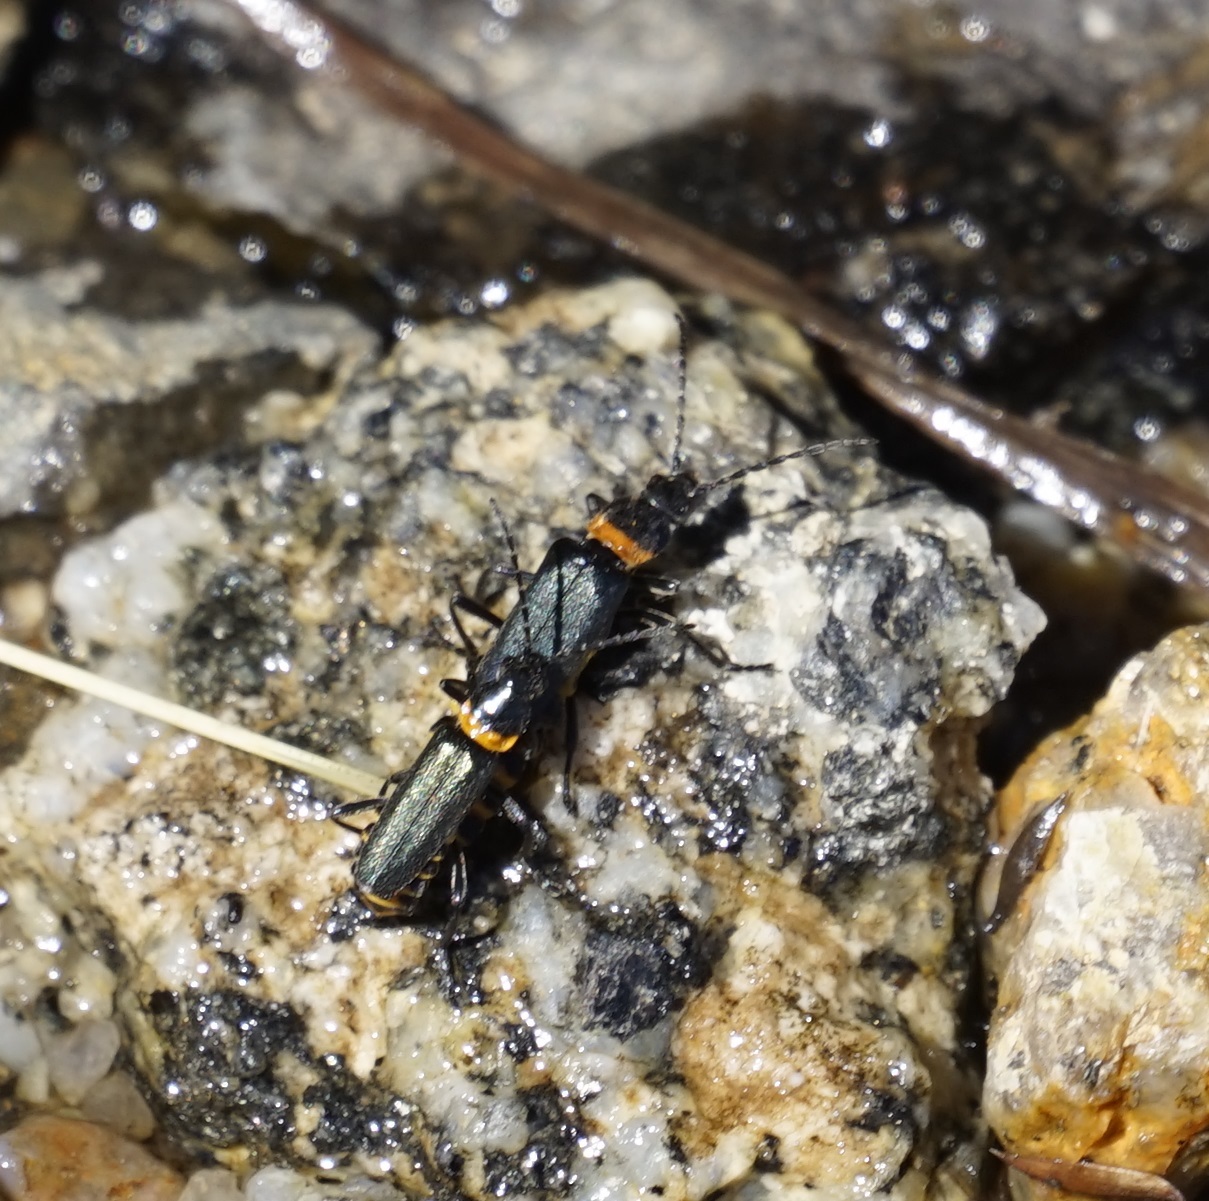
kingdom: Animalia
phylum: Arthropoda
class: Insecta
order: Coleoptera
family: Cantharidae
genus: Chauliognathus
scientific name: Chauliognathus
